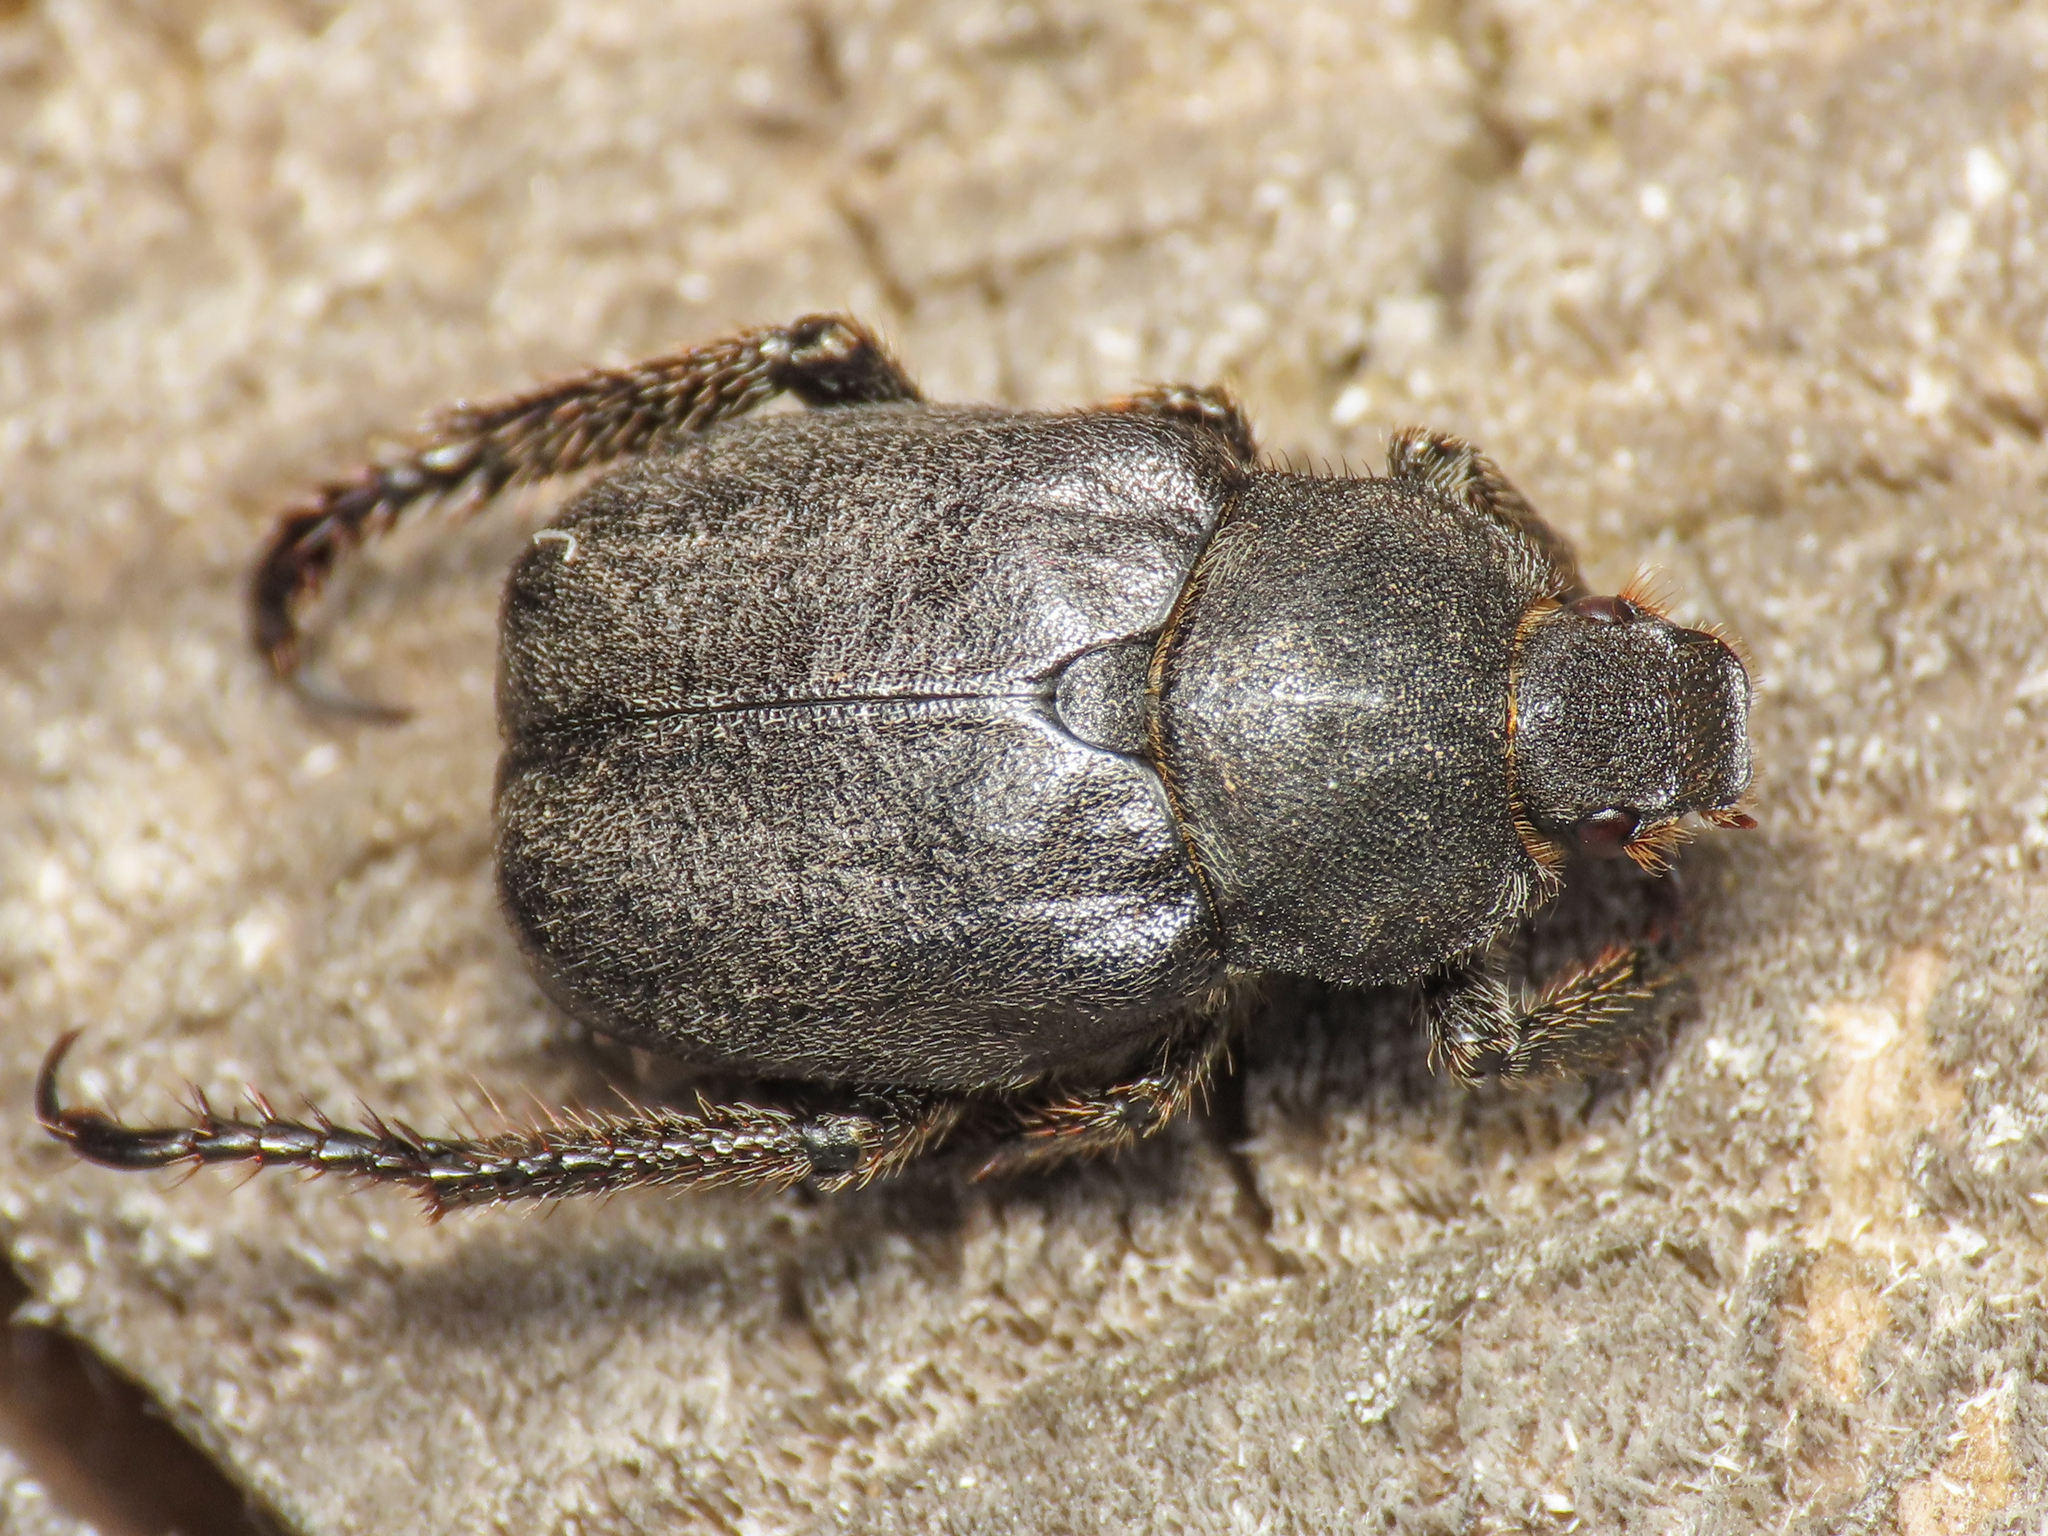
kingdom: Animalia
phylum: Arthropoda
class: Insecta
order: Coleoptera
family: Scarabaeidae
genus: Hoplia
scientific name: Hoplia fiorii
